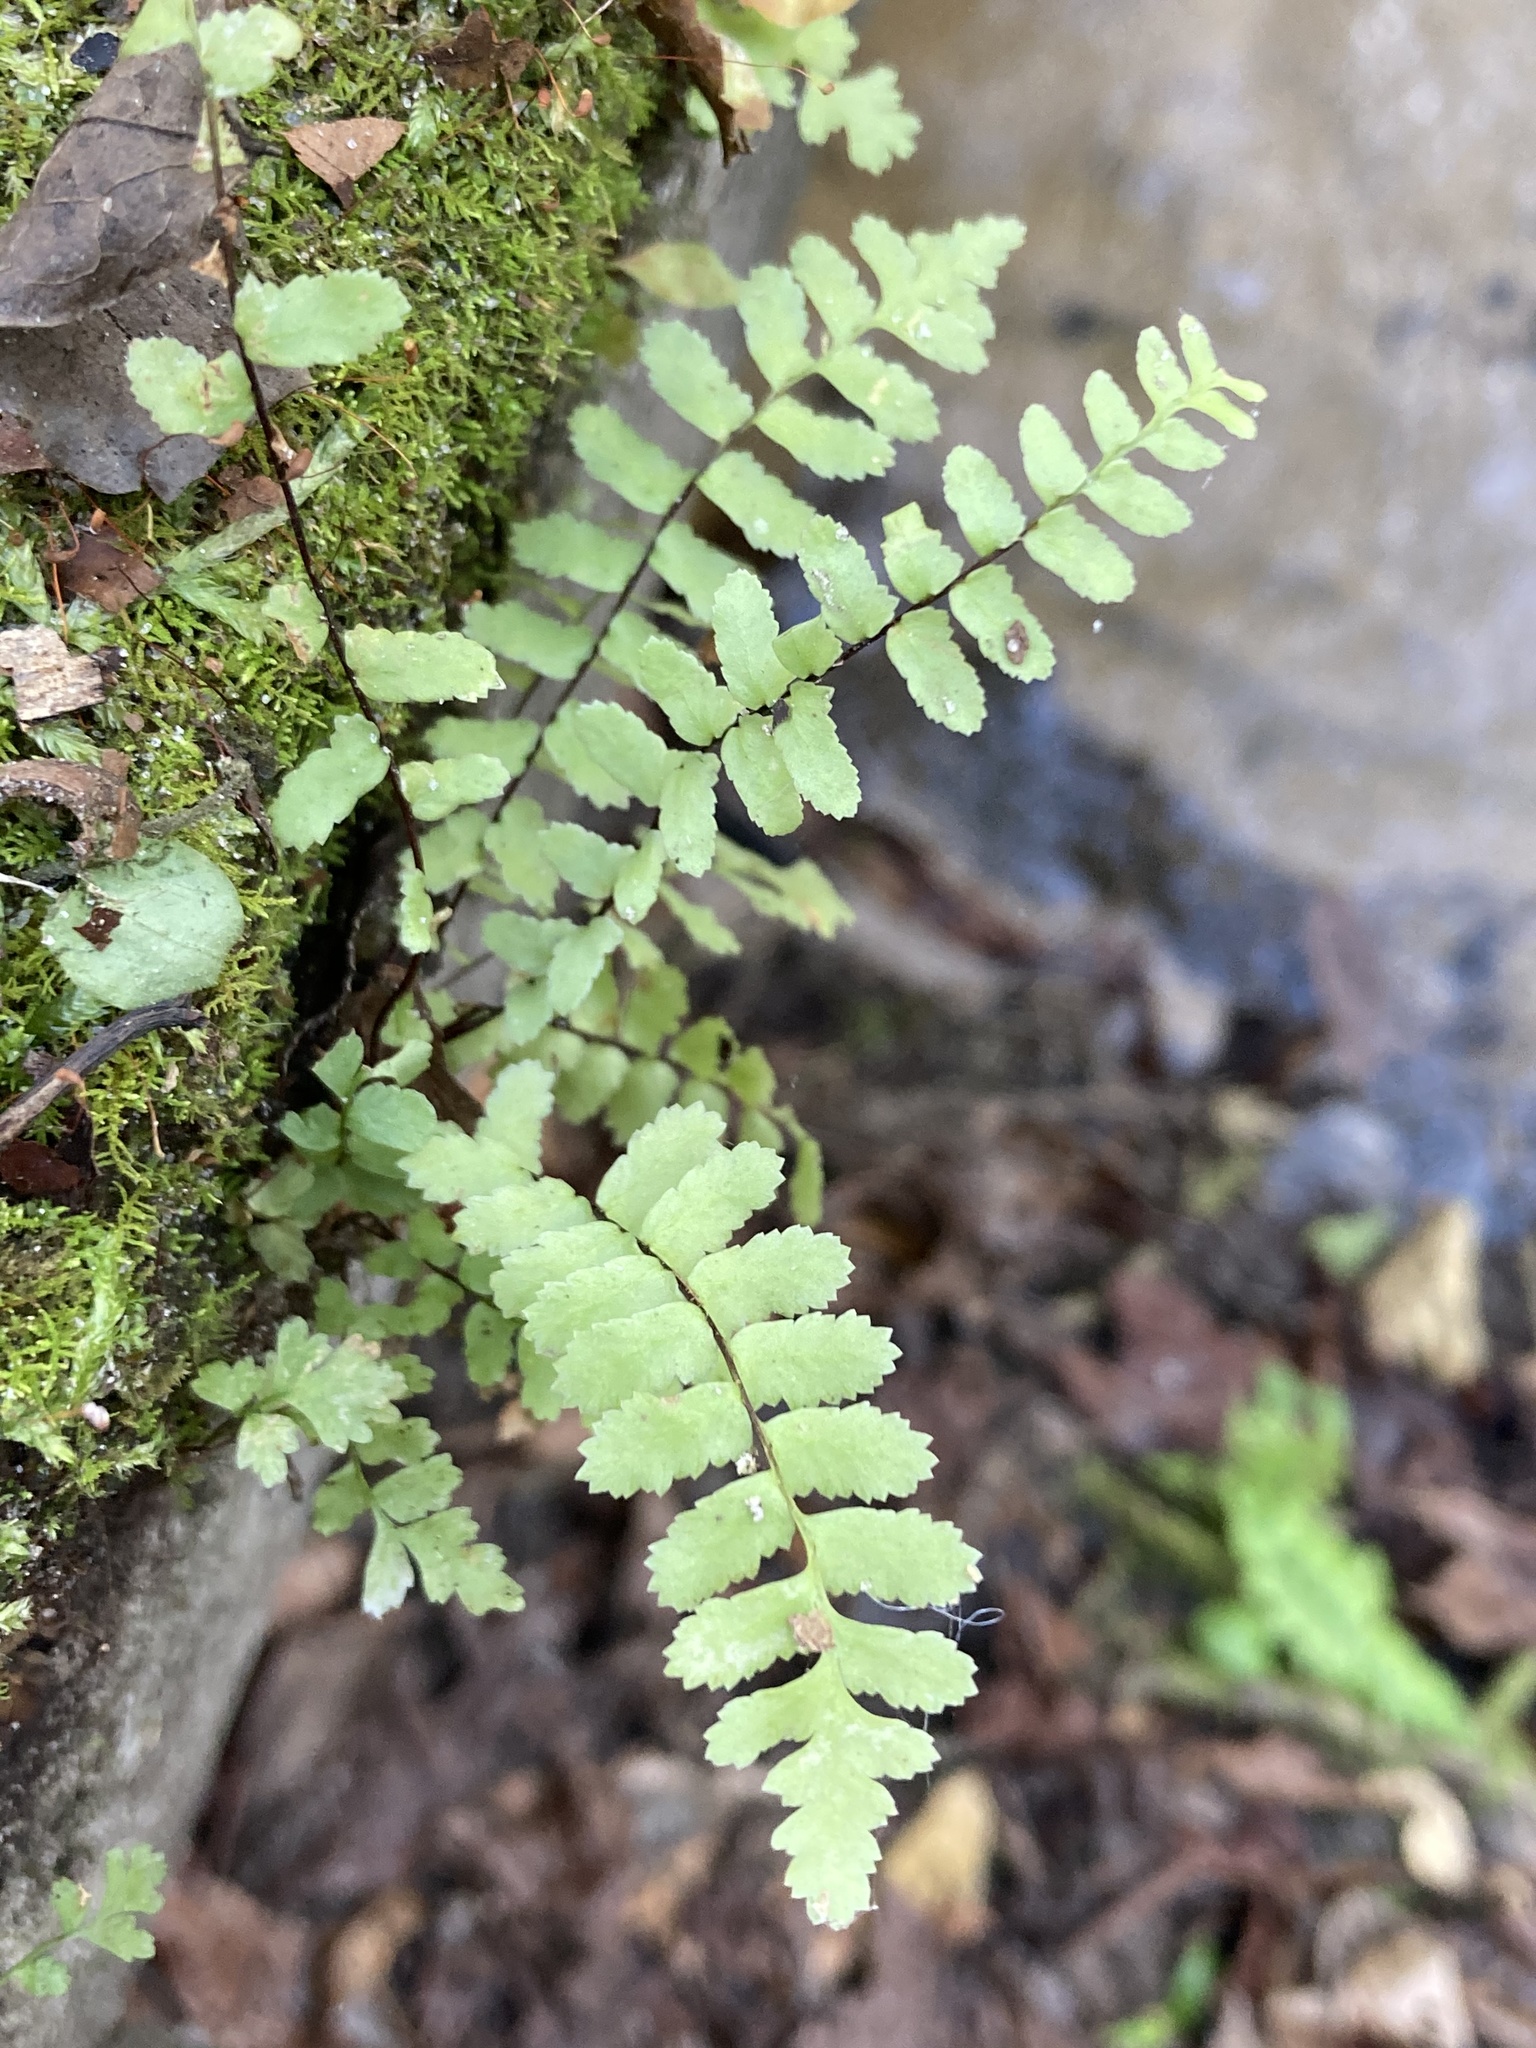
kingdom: Plantae
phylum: Tracheophyta
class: Polypodiopsida
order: Polypodiales
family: Aspleniaceae
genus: Asplenium
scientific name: Asplenium platyneuron
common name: Ebony spleenwort
